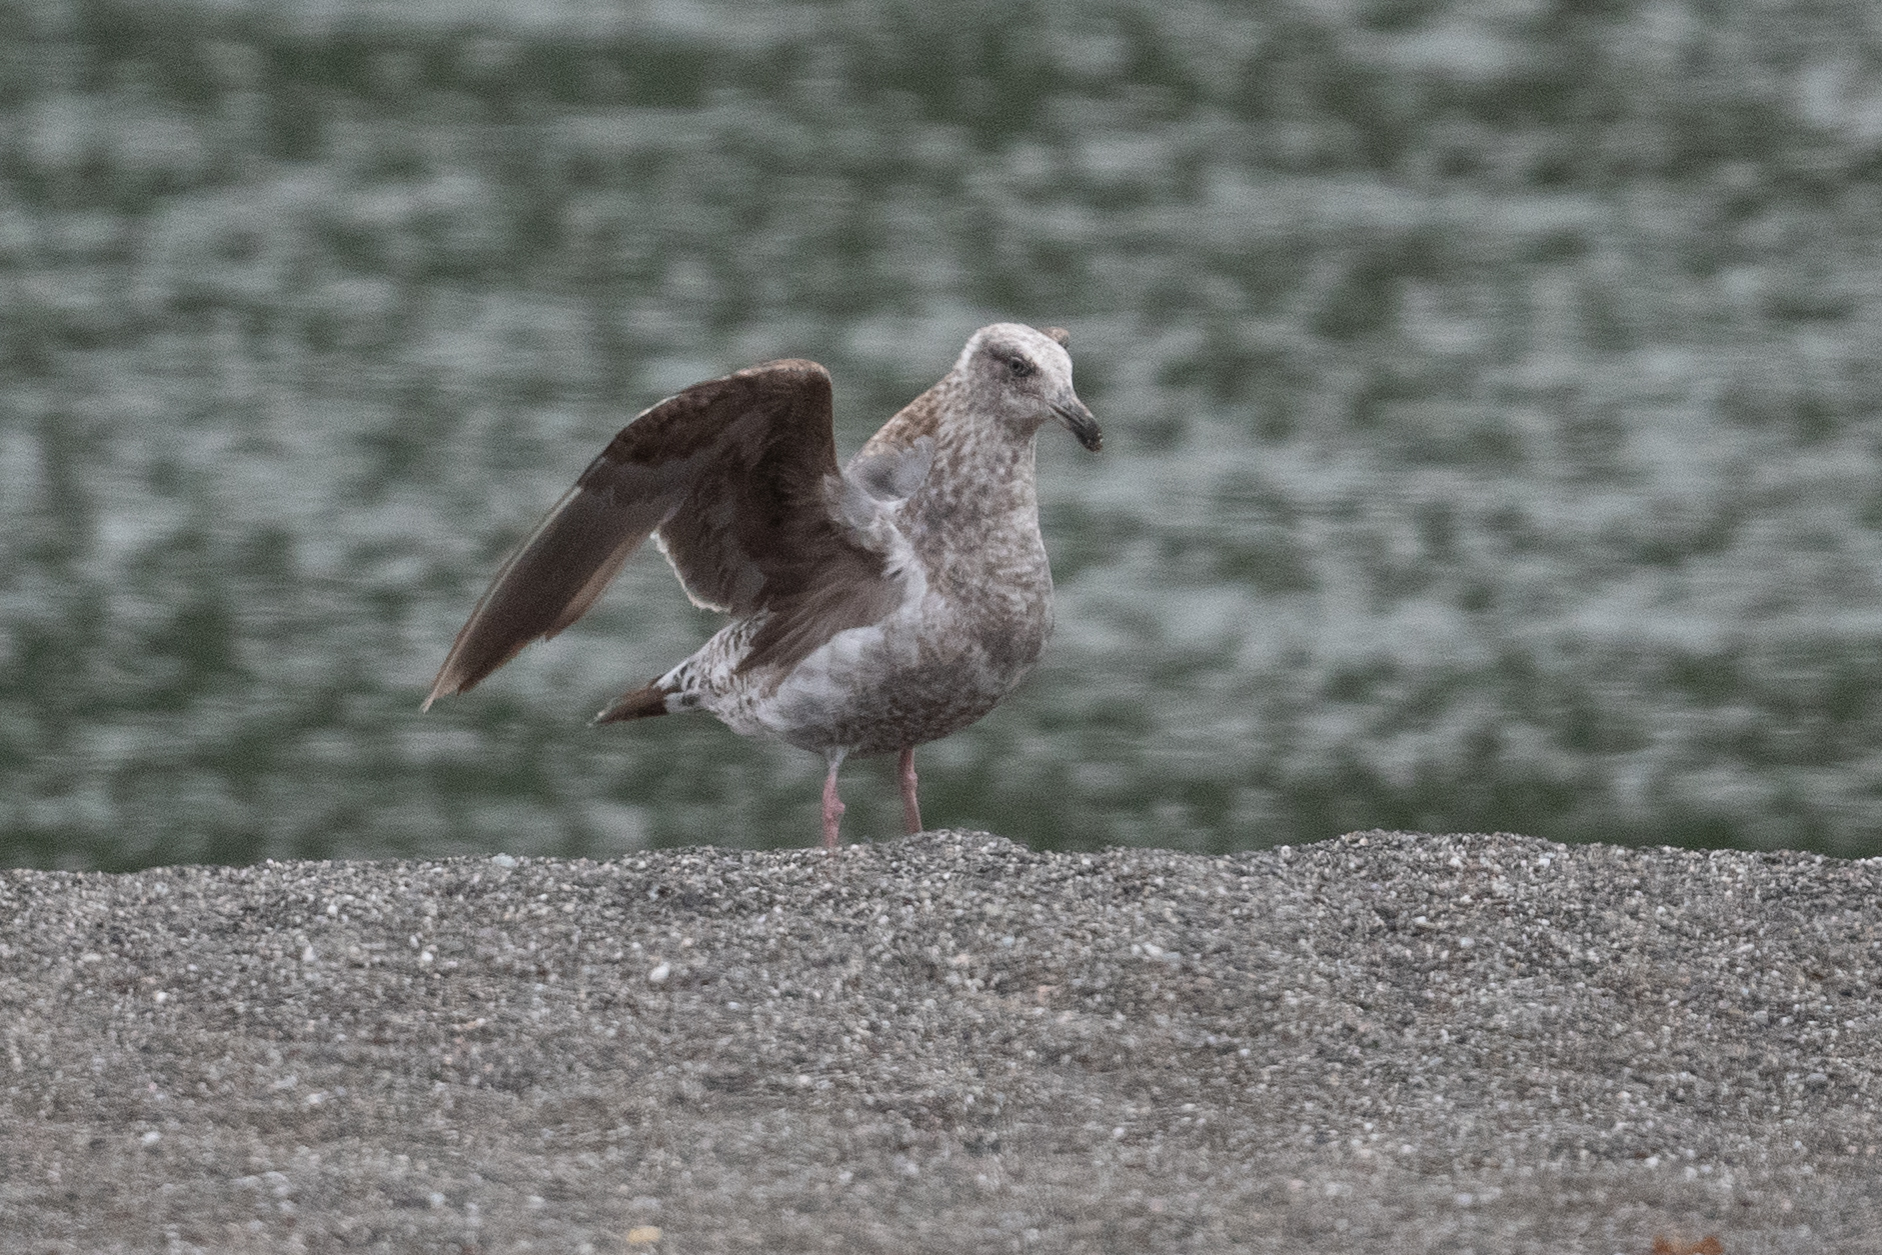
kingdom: Animalia
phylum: Chordata
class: Aves
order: Charadriiformes
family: Laridae
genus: Larus
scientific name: Larus occidentalis
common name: Western gull
